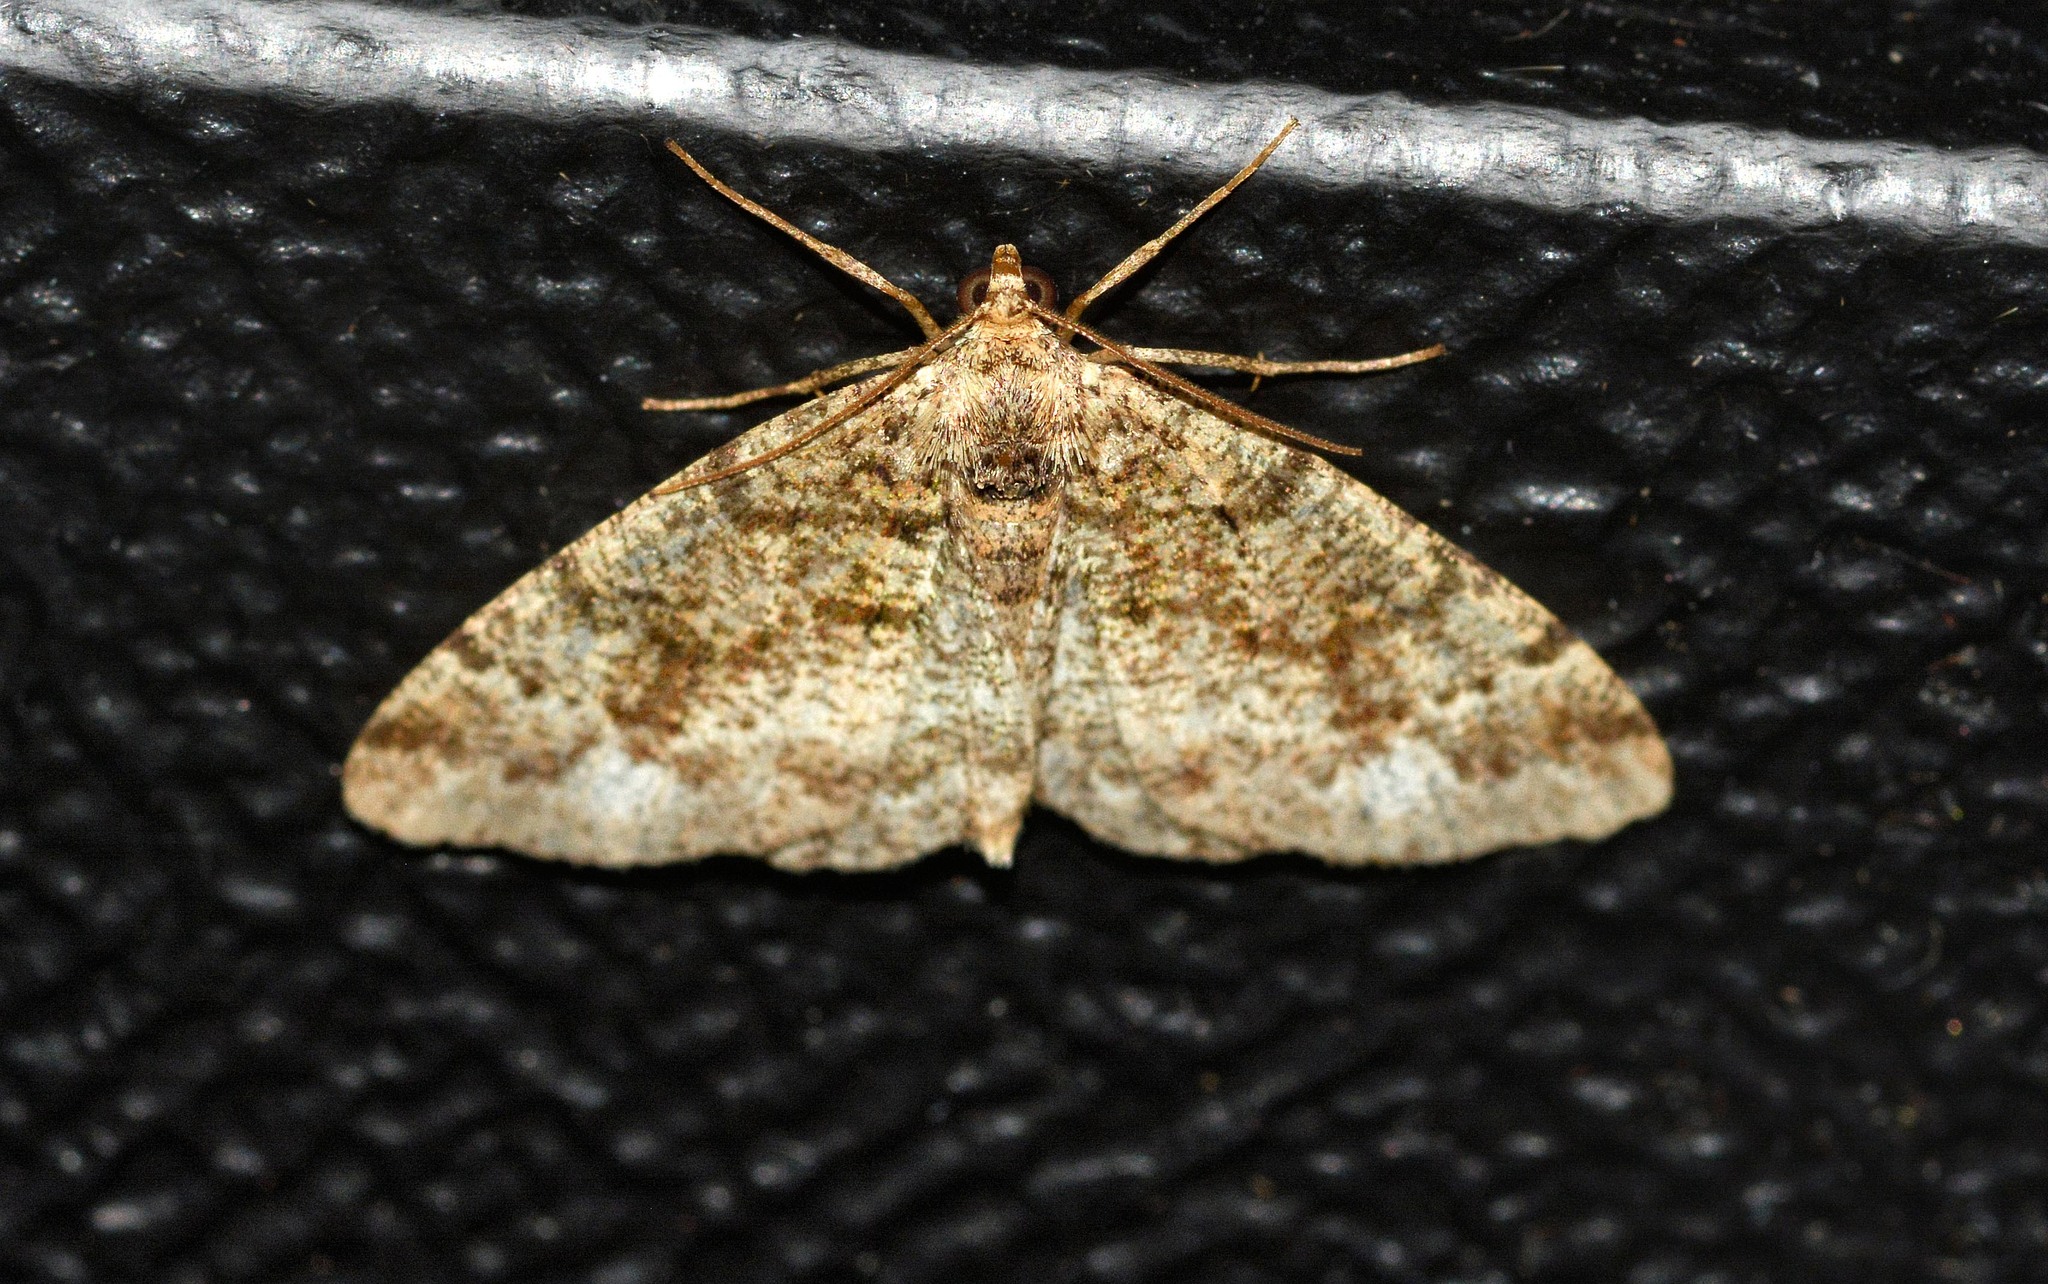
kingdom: Animalia
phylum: Arthropoda
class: Insecta
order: Lepidoptera
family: Geometridae
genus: Parectropis
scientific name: Parectropis similaria
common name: Brindled white-spot
